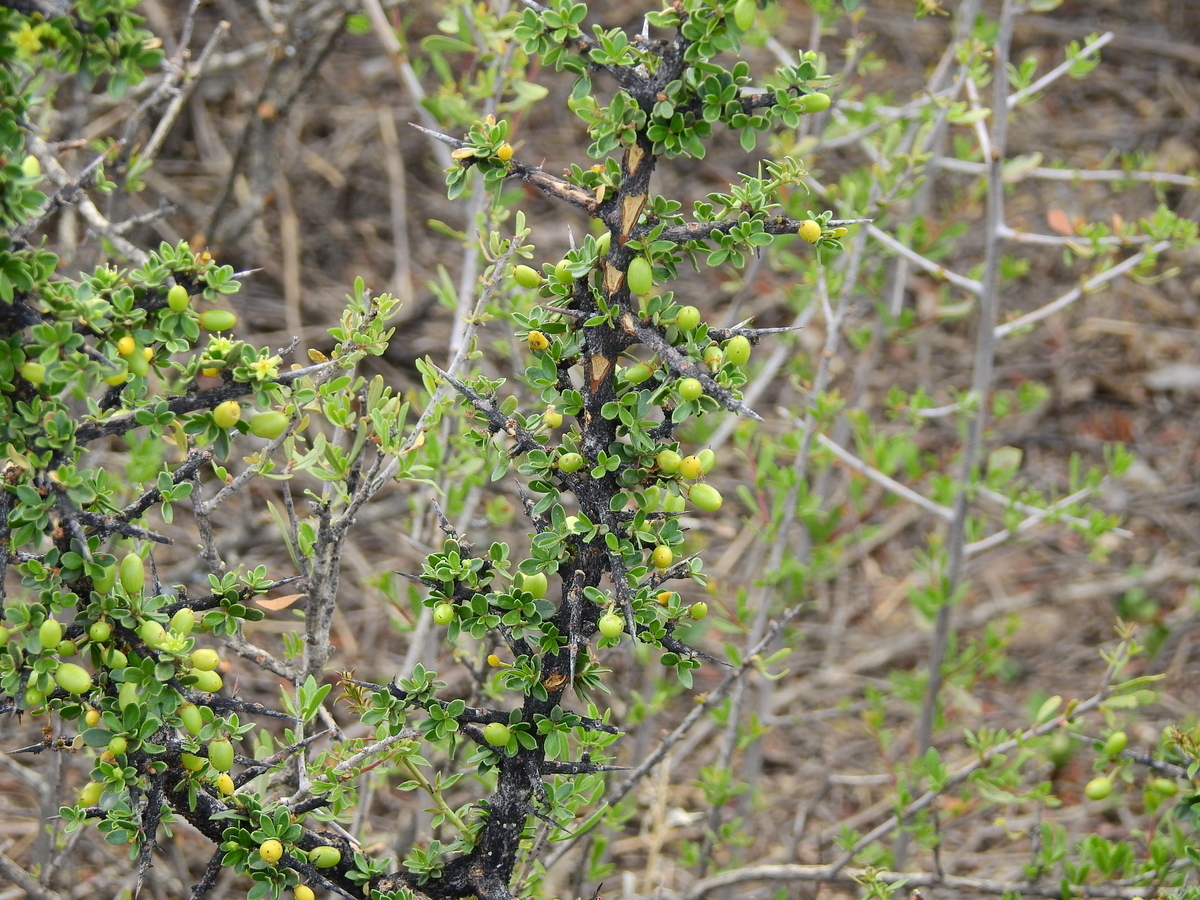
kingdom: Plantae
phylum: Tracheophyta
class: Magnoliopsida
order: Rosales
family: Rhamnaceae
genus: Condalia
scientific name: Condalia microphylla
